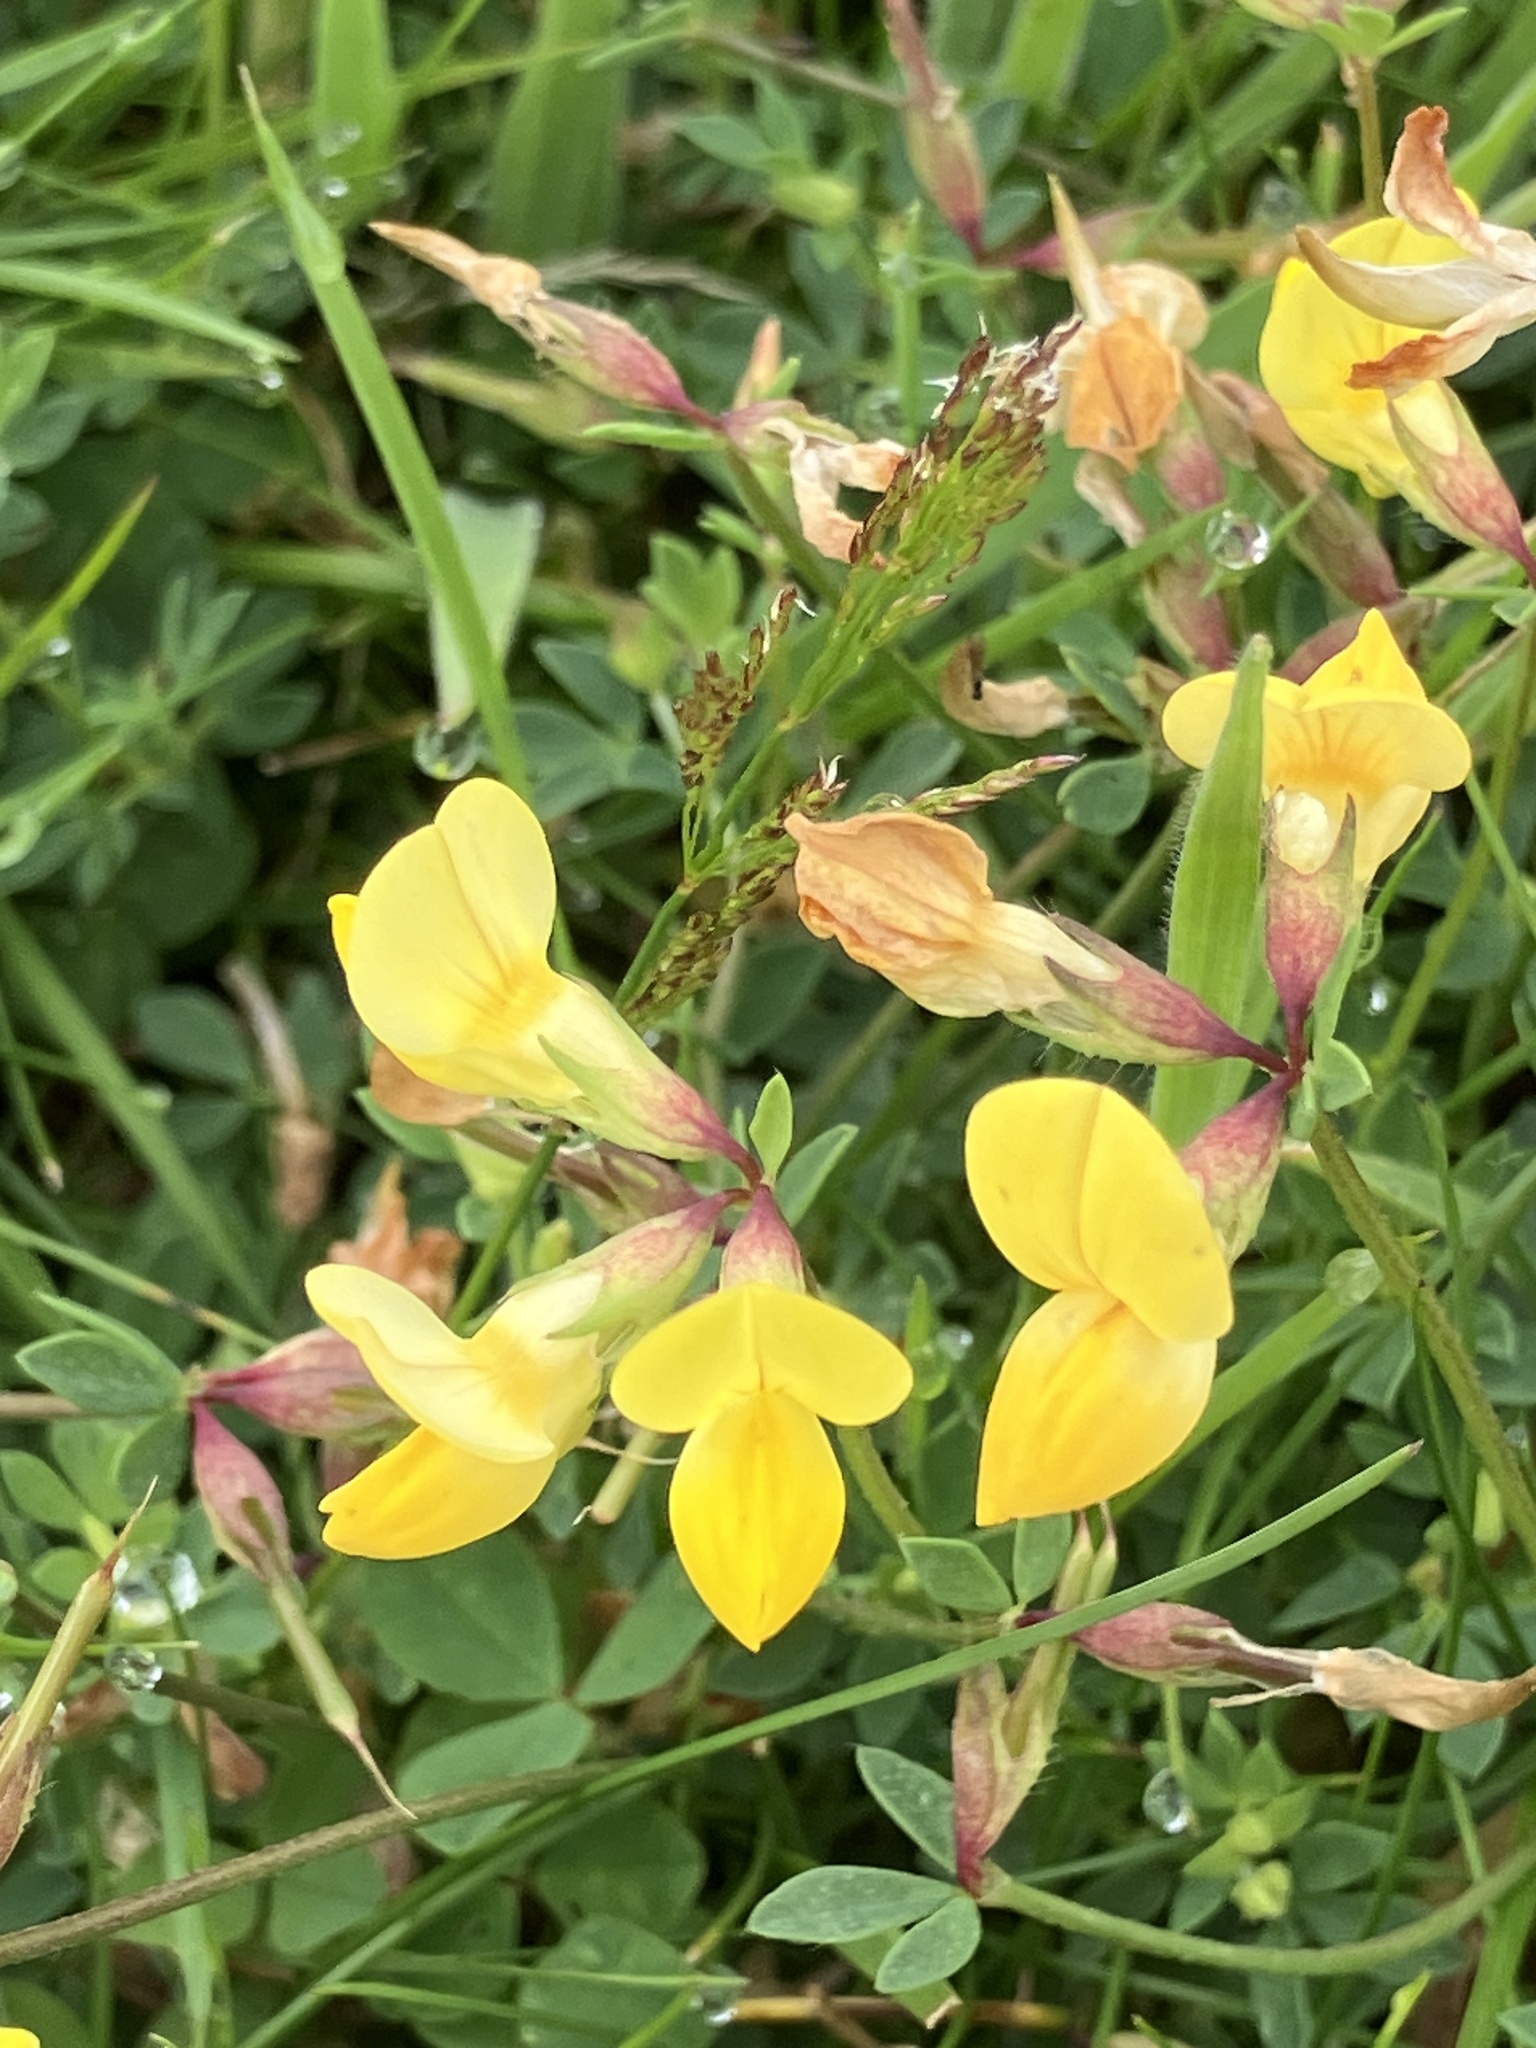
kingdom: Plantae
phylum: Tracheophyta
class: Magnoliopsida
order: Fabales
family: Fabaceae
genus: Lotus
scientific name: Lotus corniculatus
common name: Common bird's-foot-trefoil
